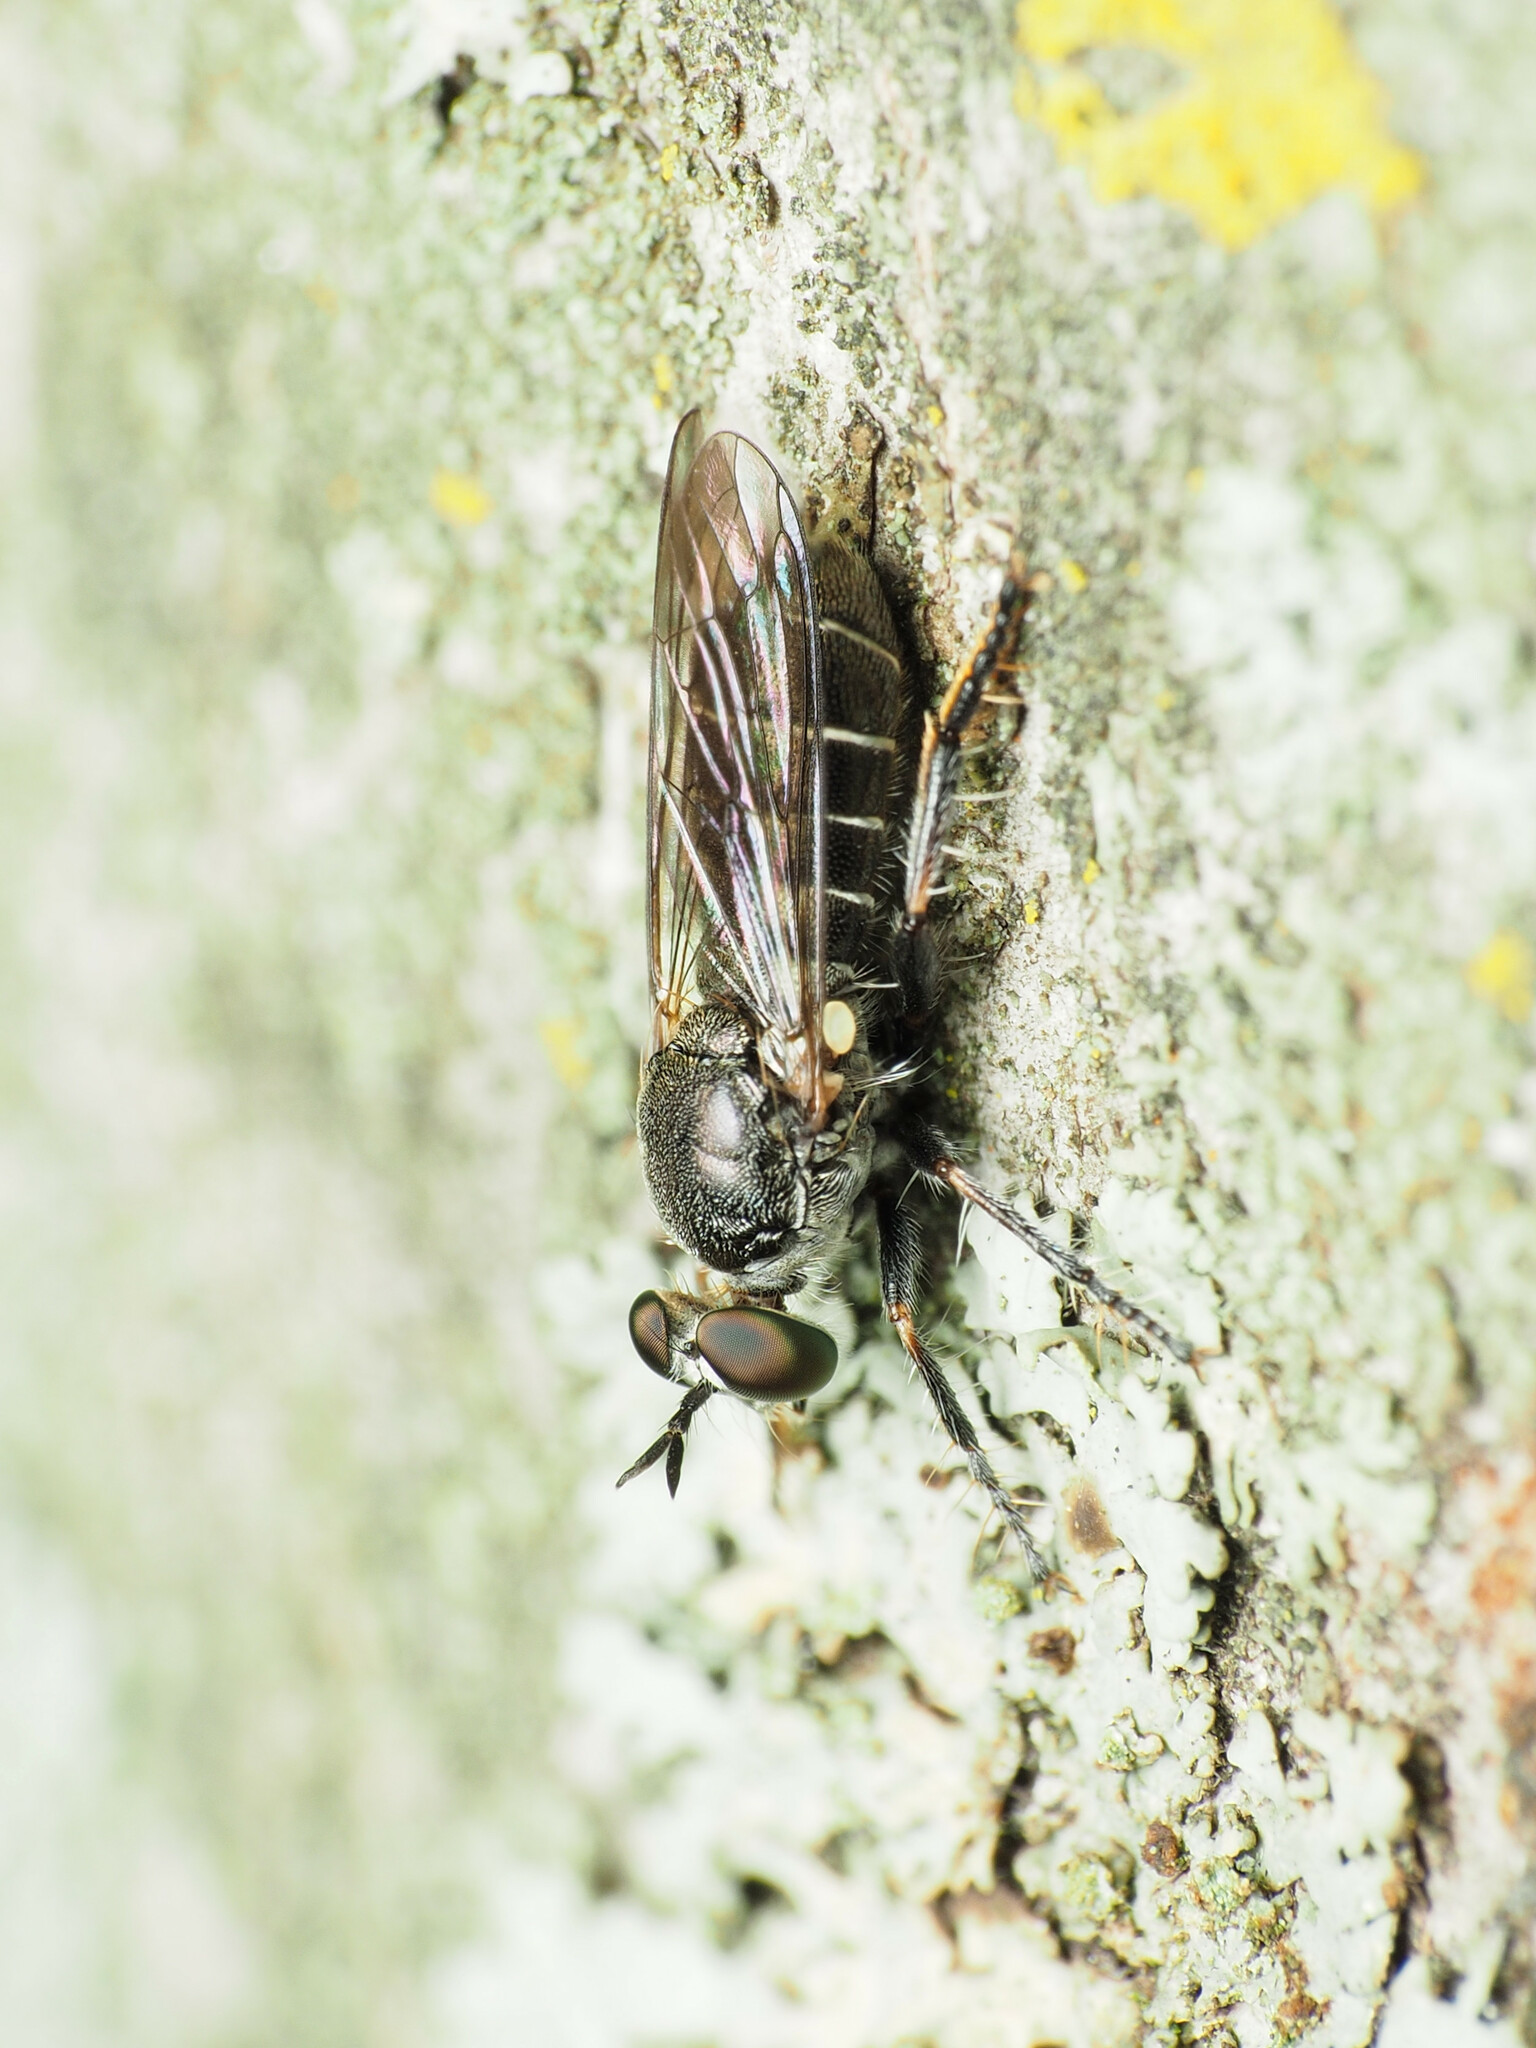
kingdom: Animalia
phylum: Arthropoda
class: Insecta
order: Diptera
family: Asilidae
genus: Atomosia
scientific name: Atomosia puella
